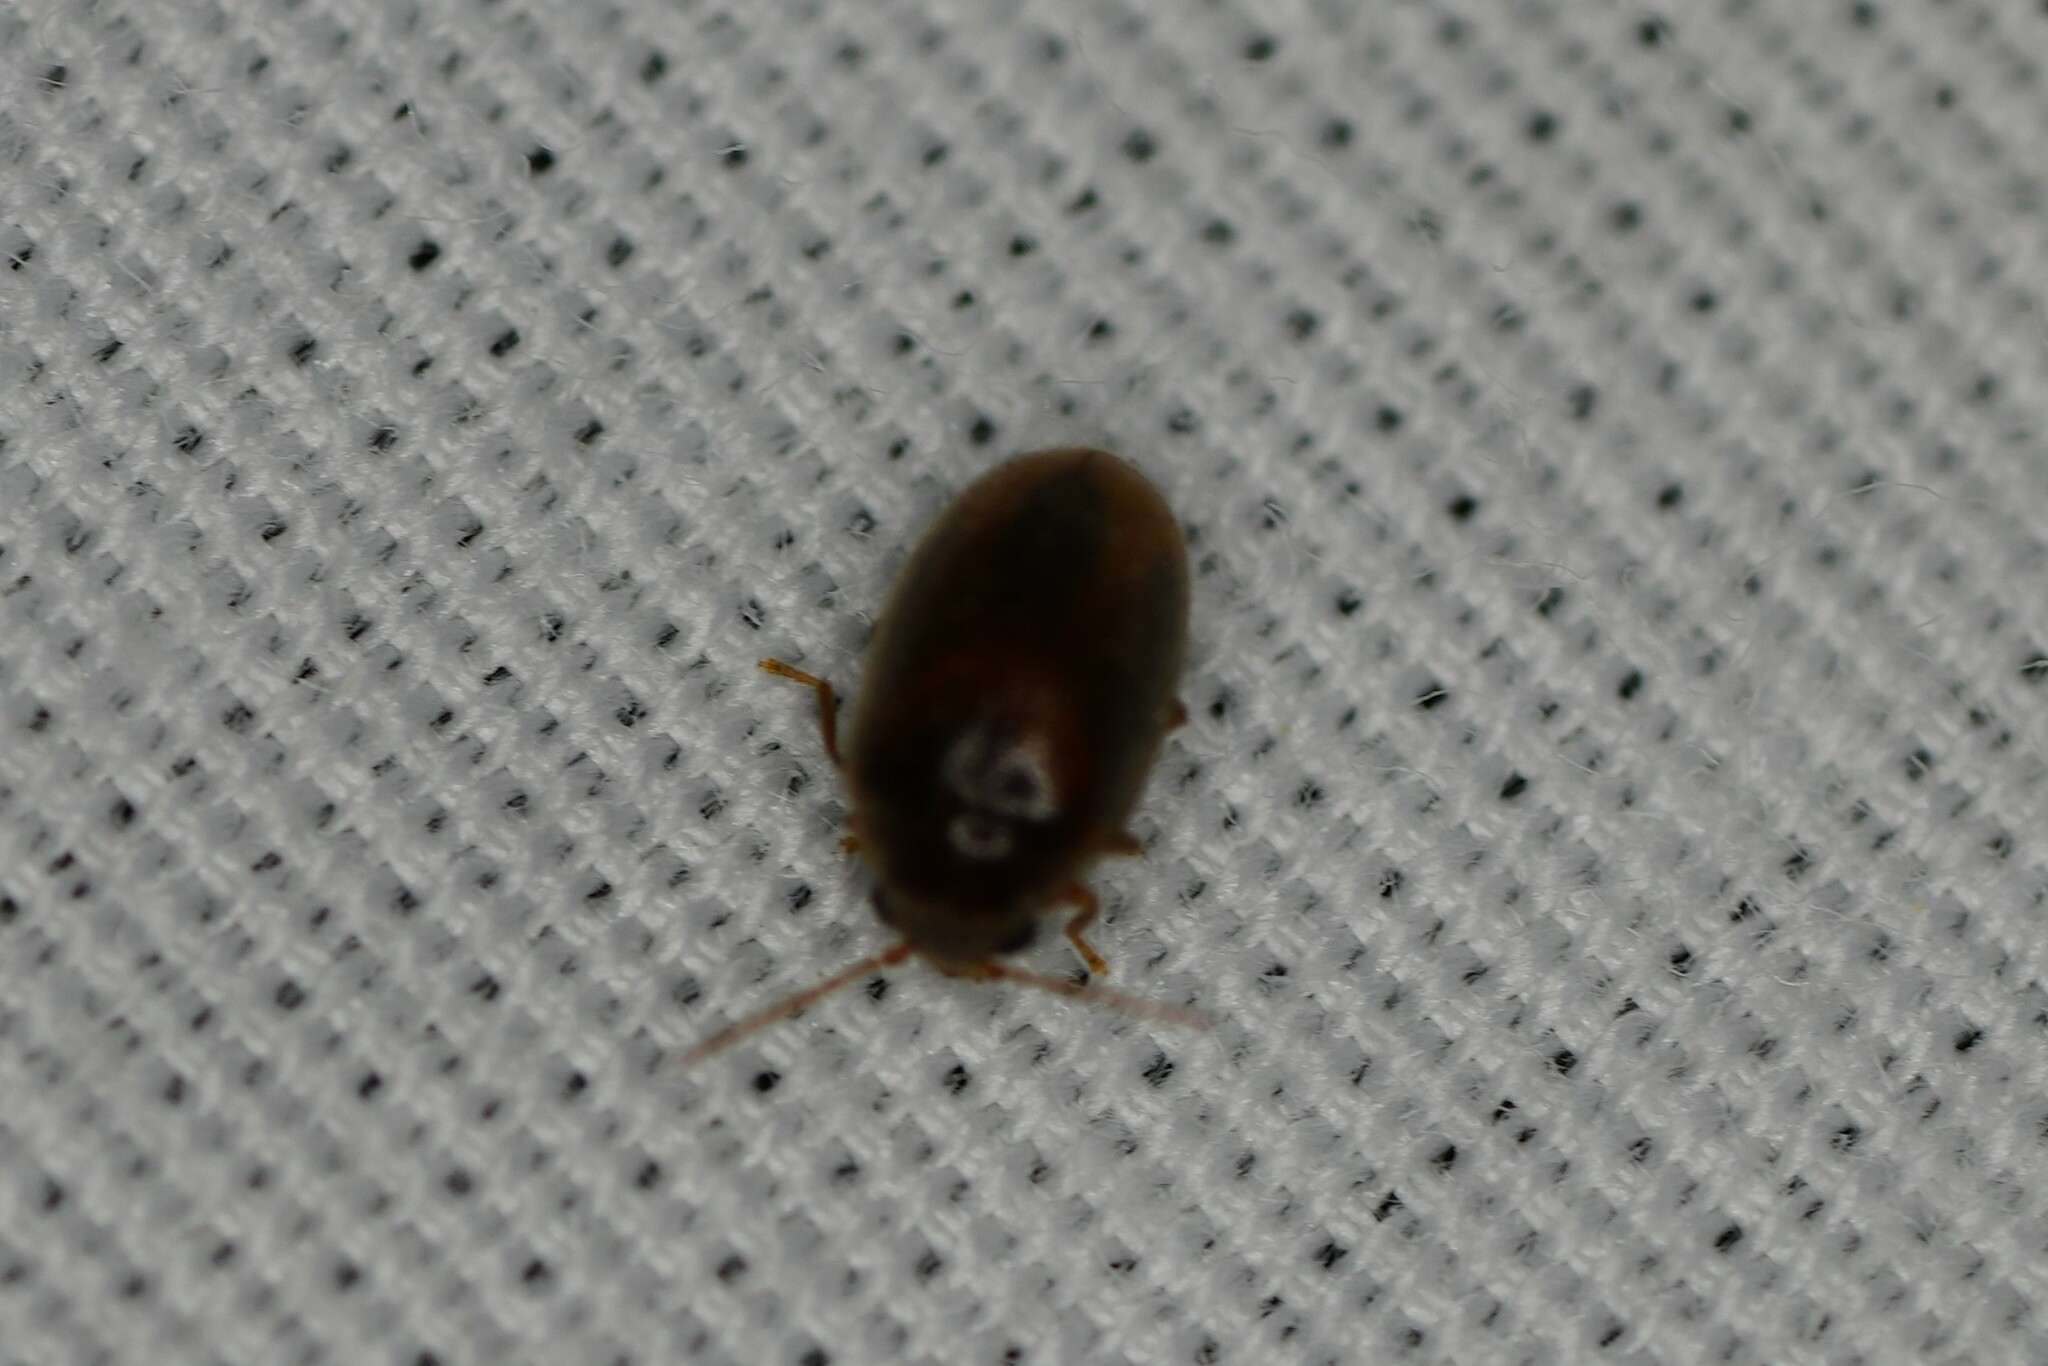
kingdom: Animalia
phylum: Arthropoda
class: Insecta
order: Coleoptera
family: Scirtidae
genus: Contacyphon
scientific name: Contacyphon
